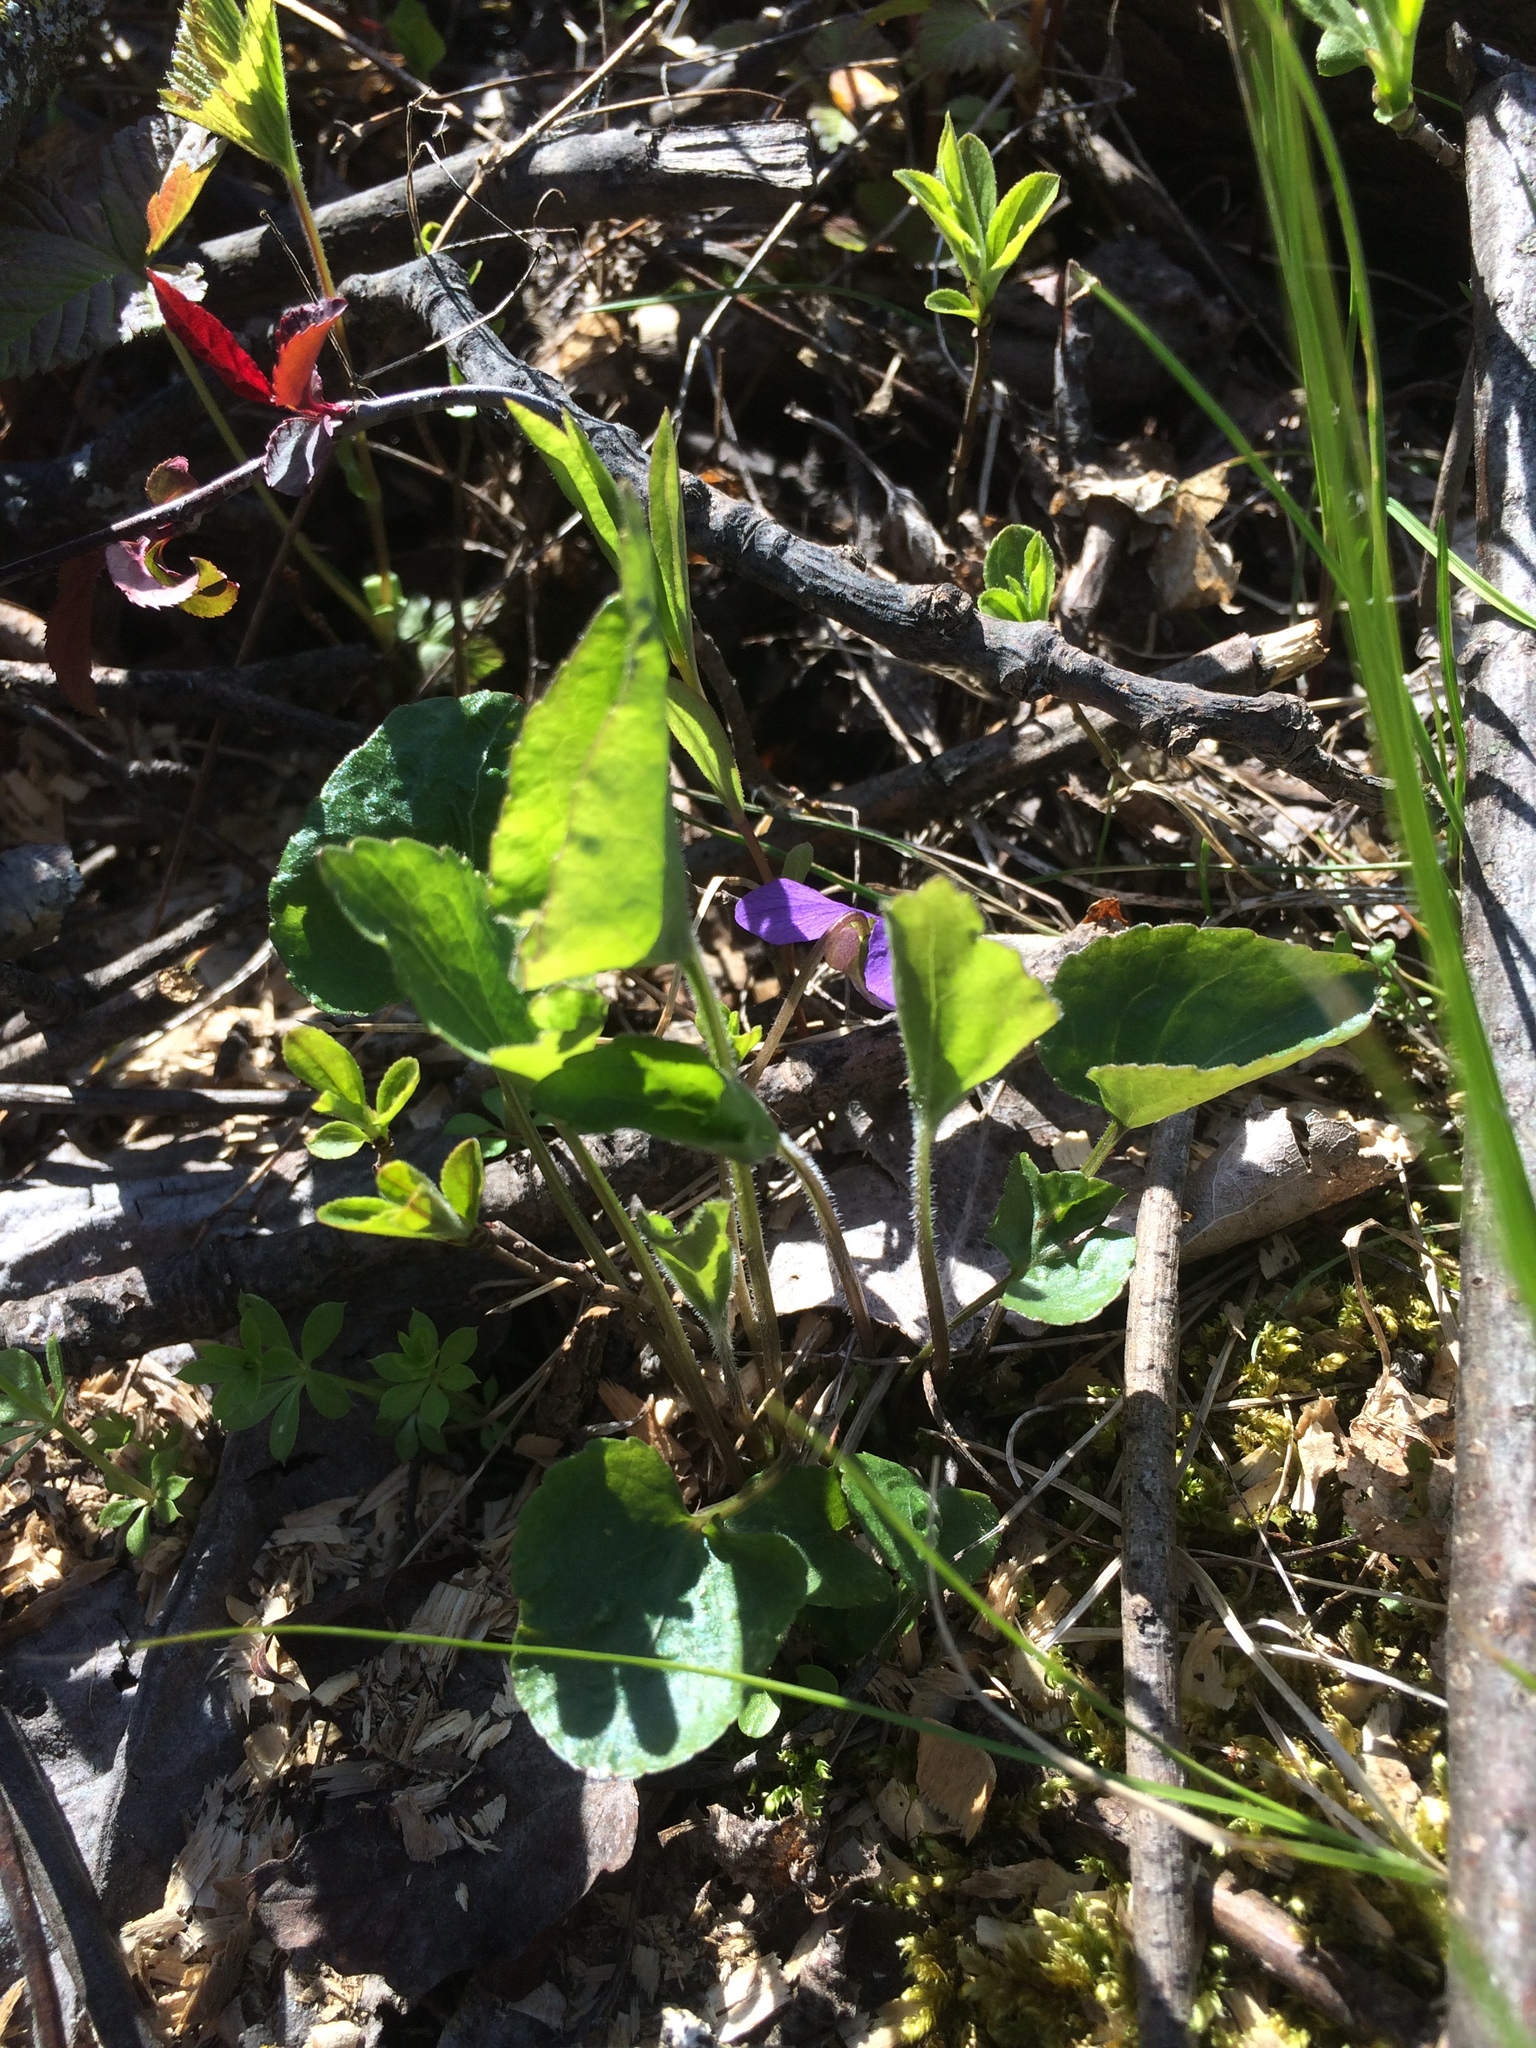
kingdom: Plantae
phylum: Tracheophyta
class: Magnoliopsida
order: Malpighiales
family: Violaceae
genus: Viola
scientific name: Viola septentrionalis
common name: Northern woodland violet
